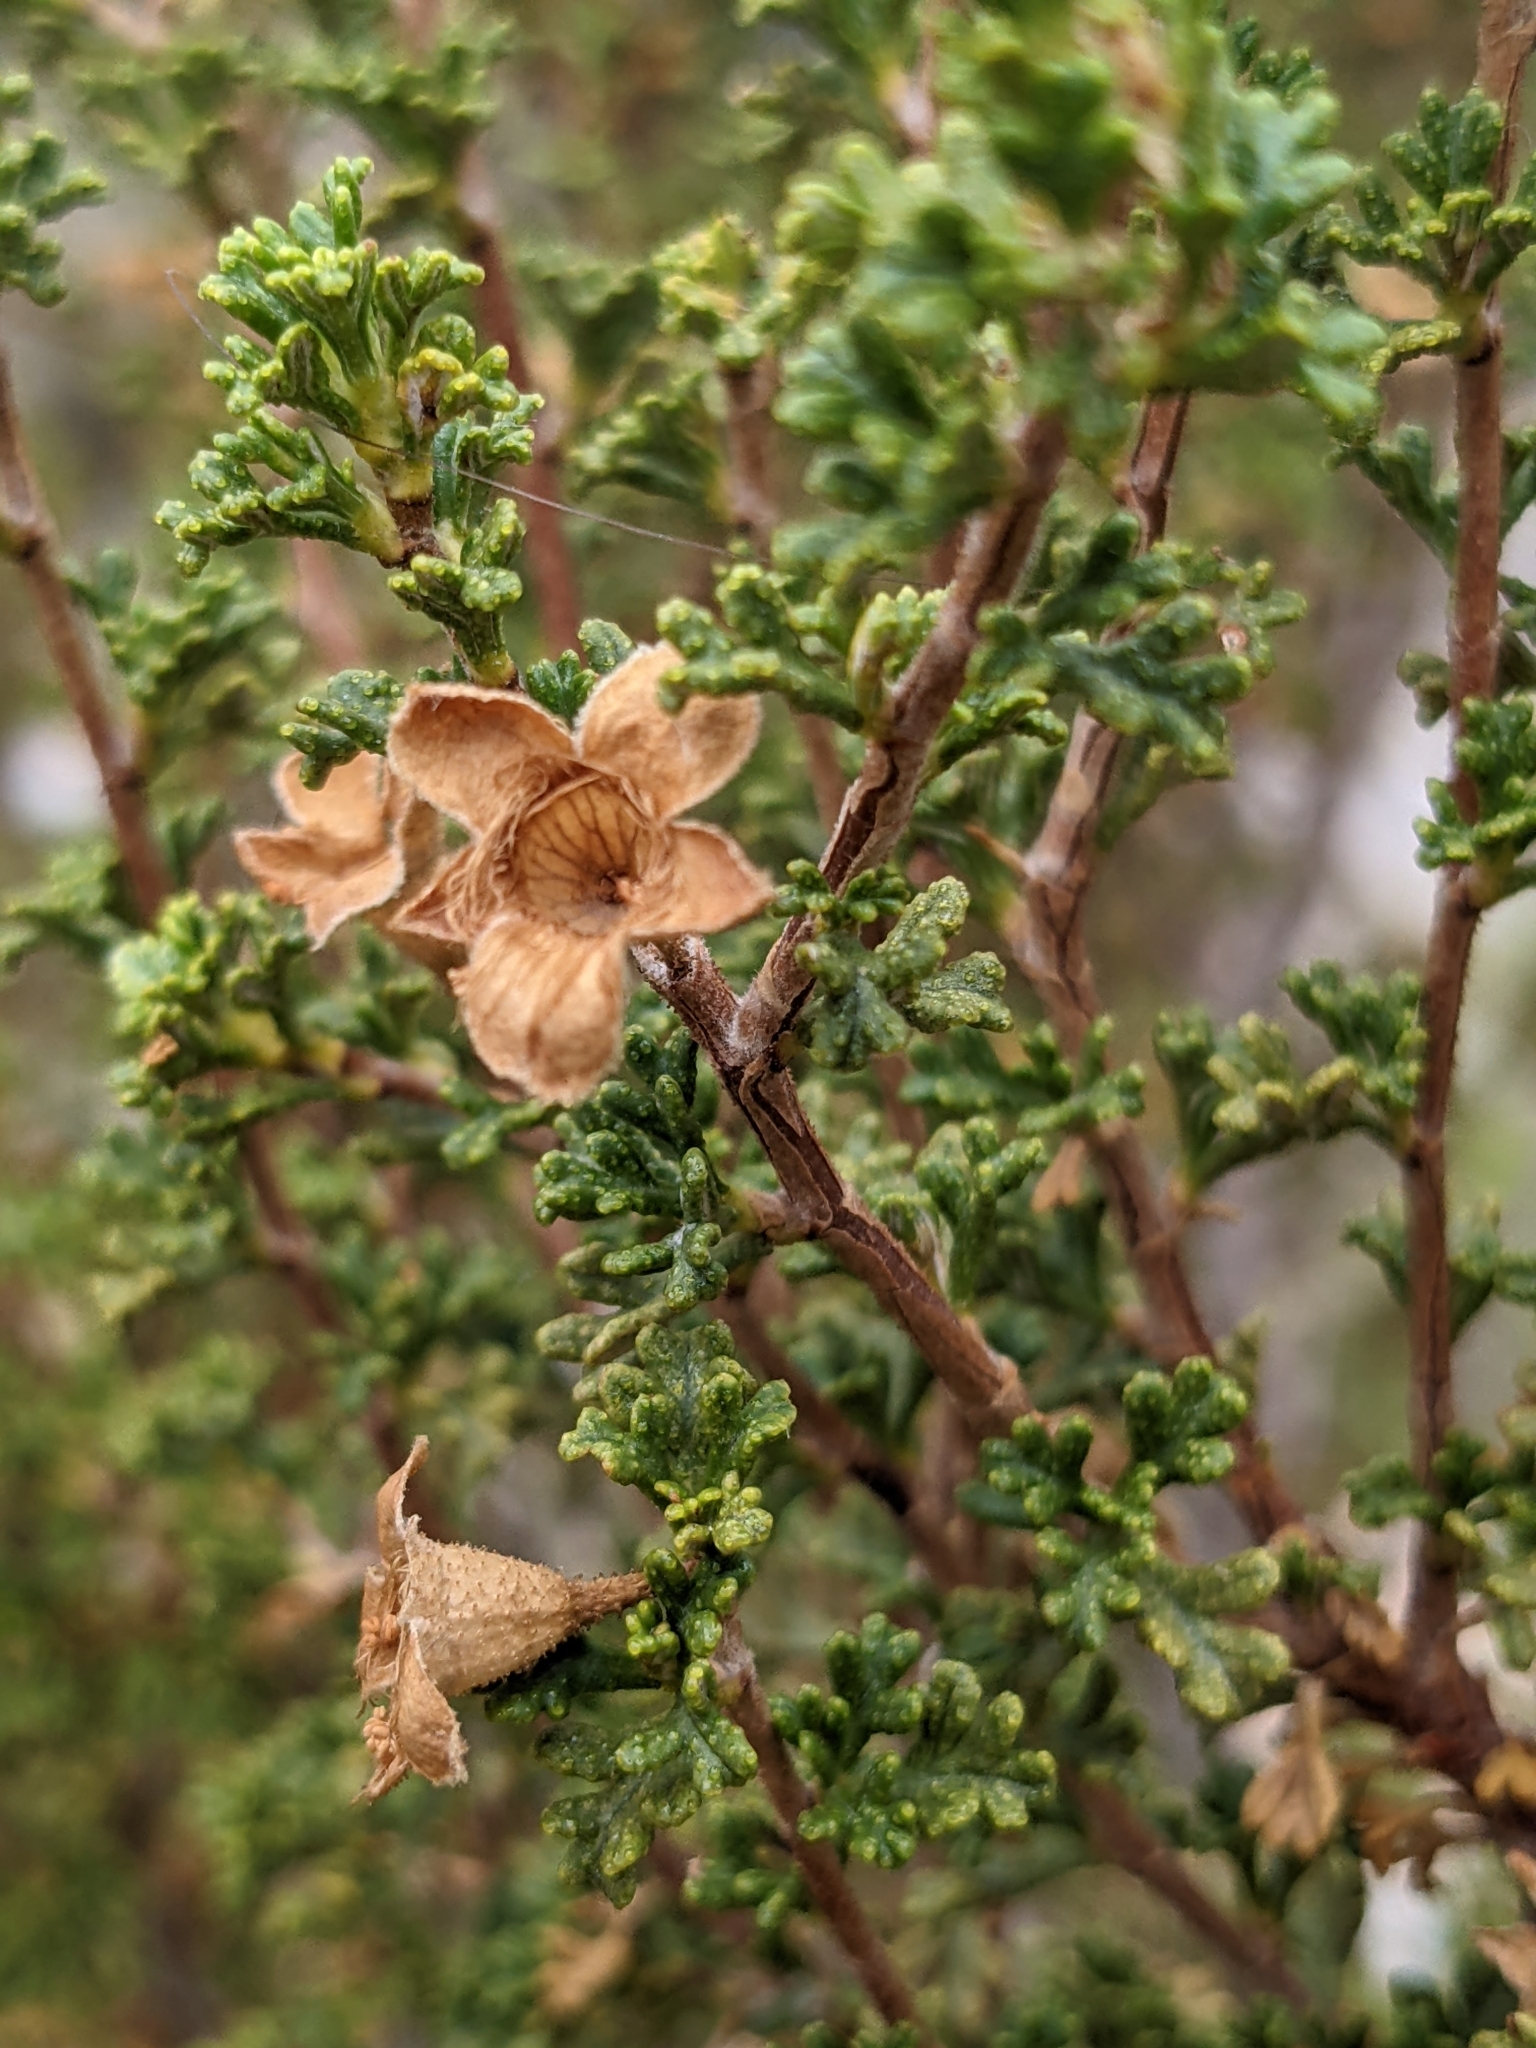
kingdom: Plantae
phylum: Tracheophyta
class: Magnoliopsida
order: Rosales
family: Rosaceae
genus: Purshia
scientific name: Purshia stansburiana
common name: Stansbury's cliffrose
